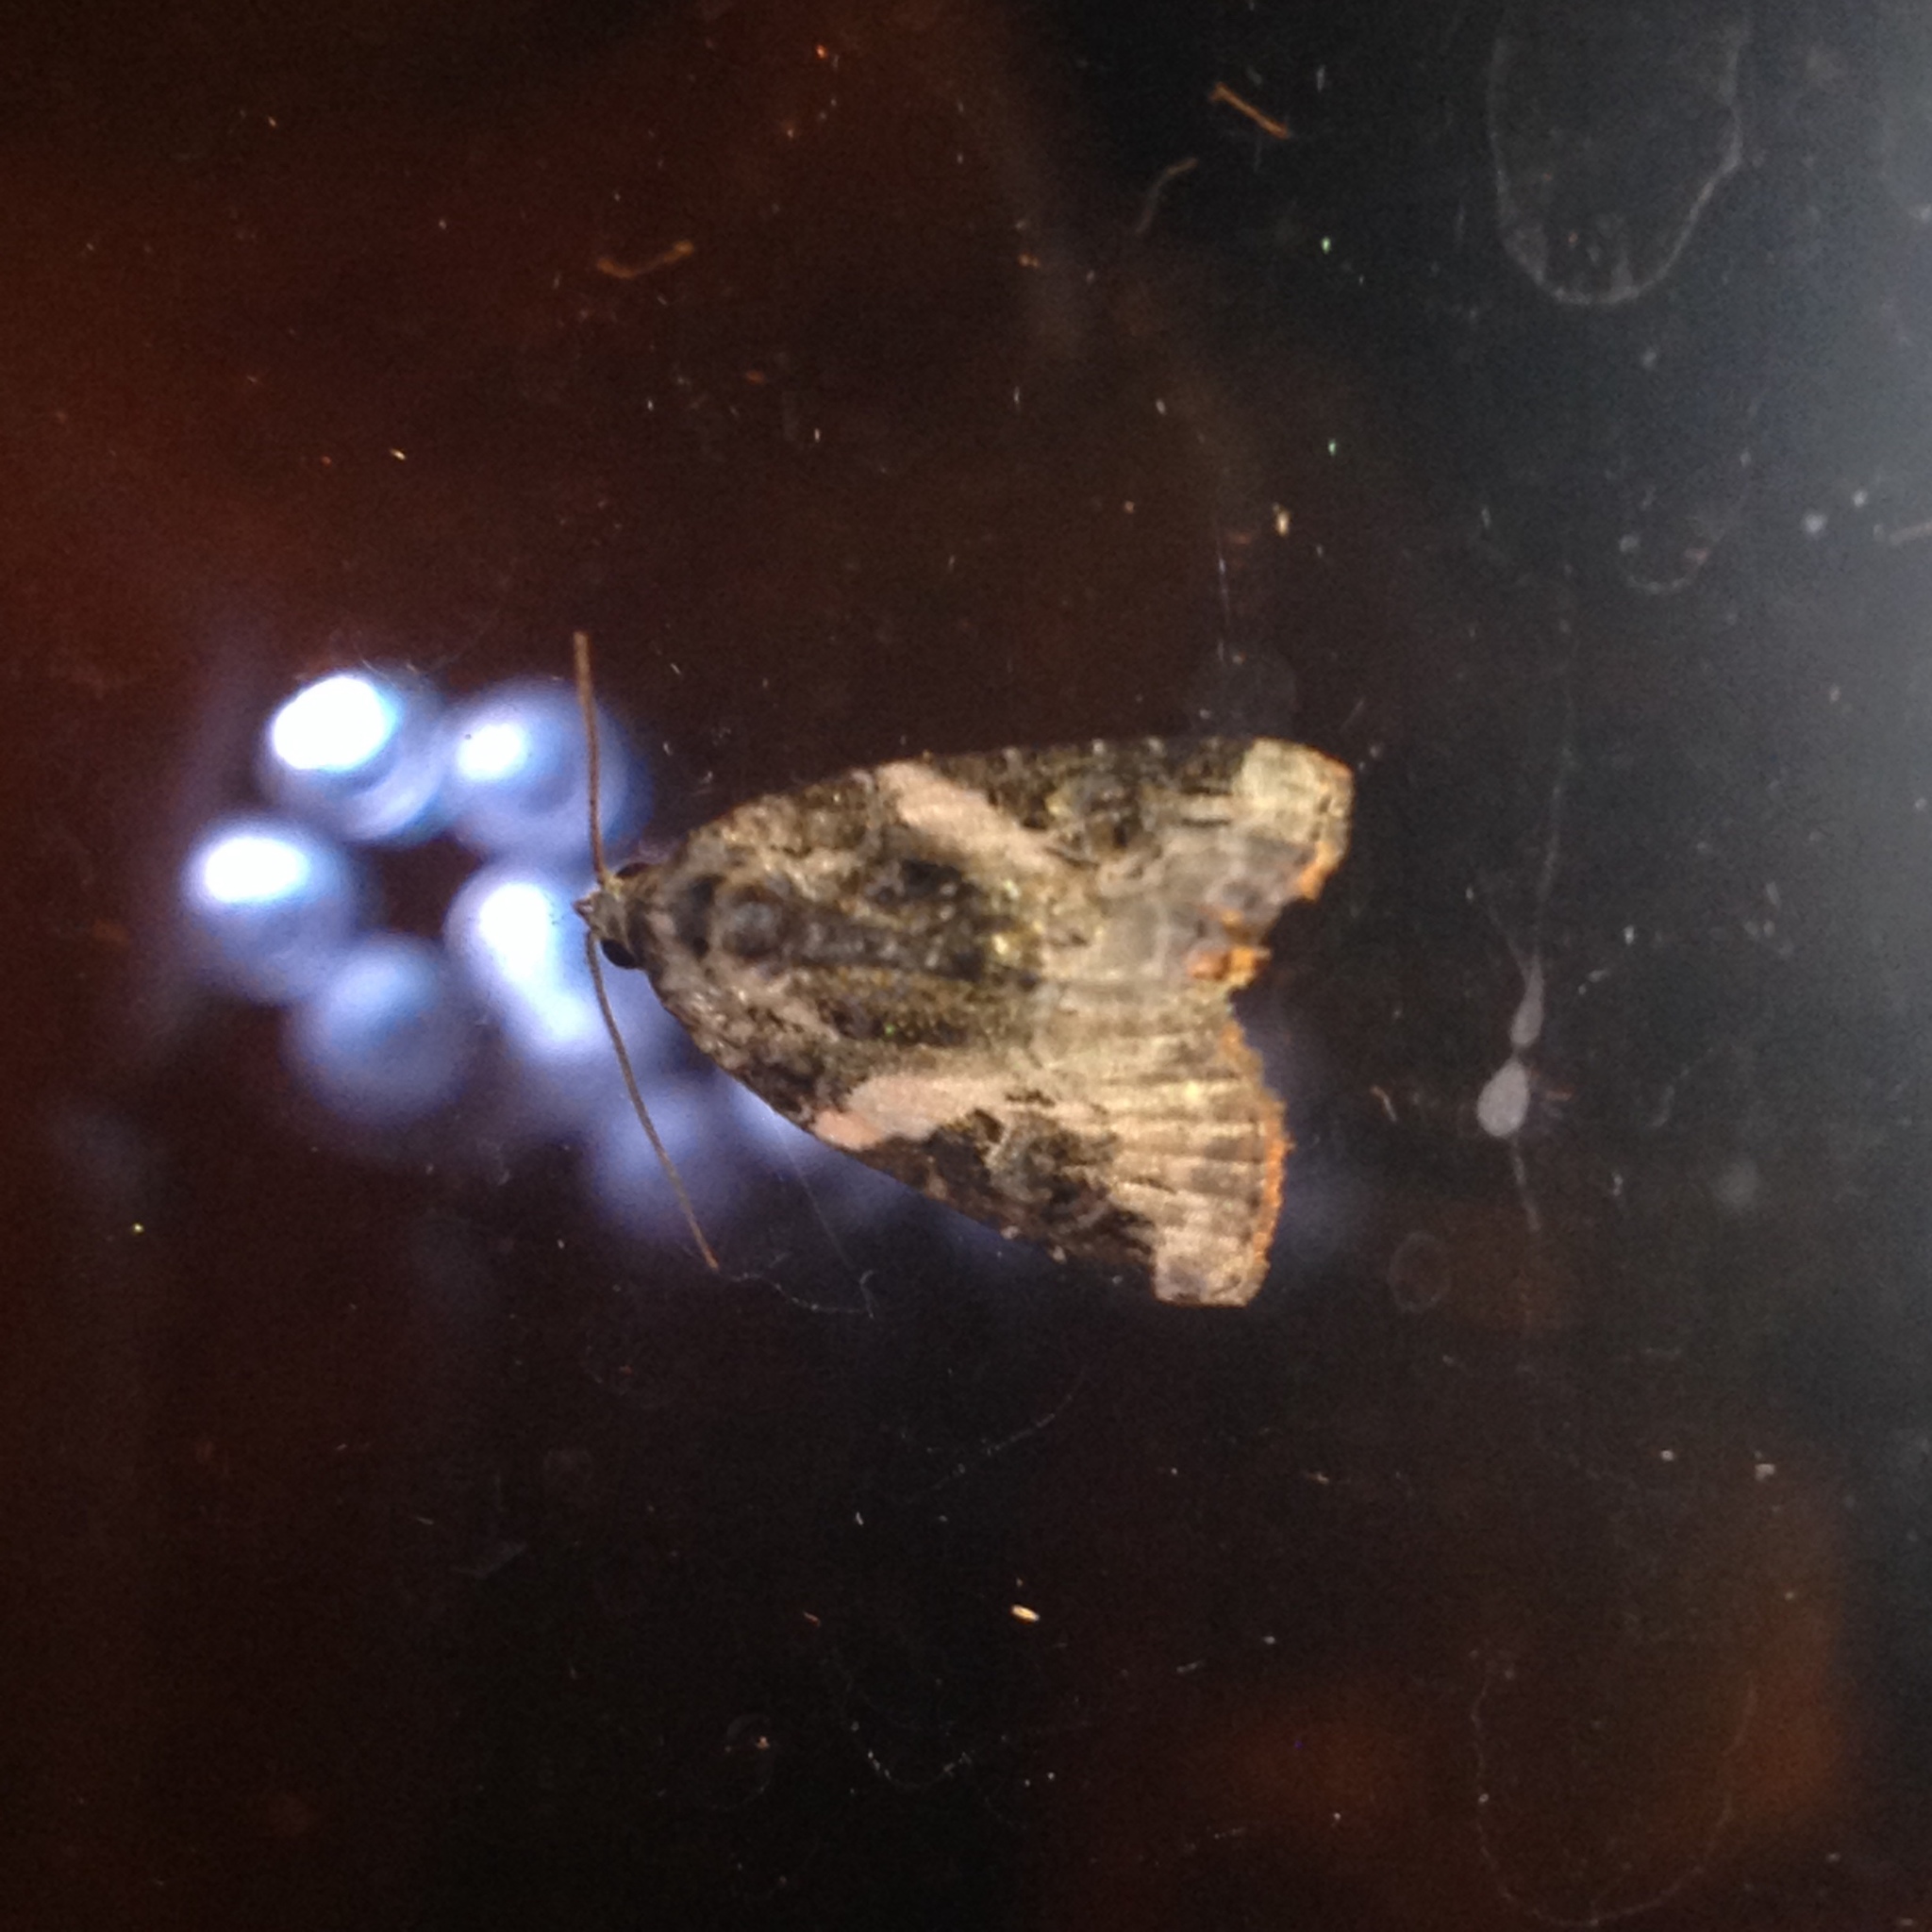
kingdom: Animalia
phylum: Arthropoda
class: Insecta
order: Lepidoptera
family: Noctuidae
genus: Pseudeustrotia
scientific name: Pseudeustrotia carneola
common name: Pink-barred lithacodia moth
